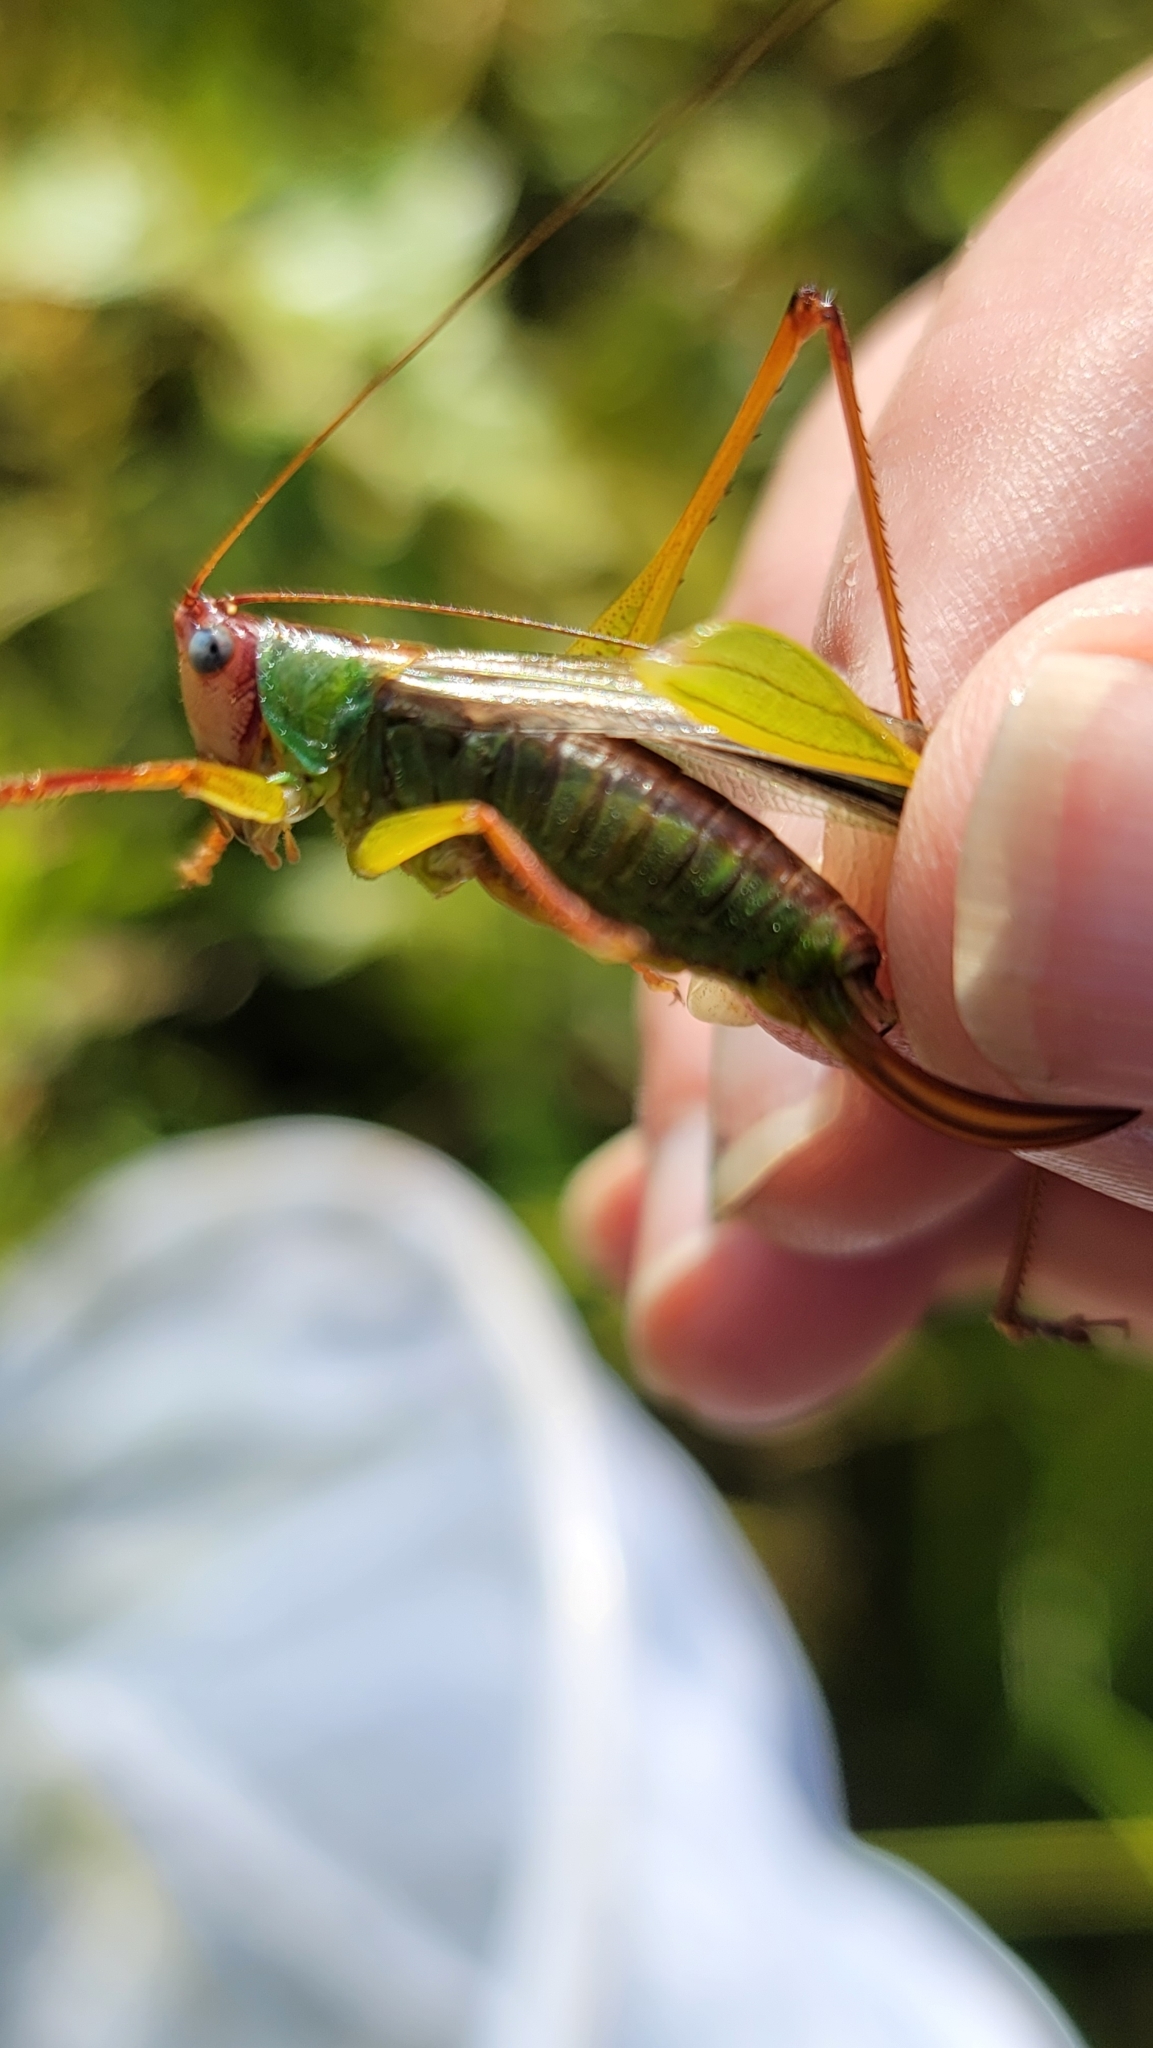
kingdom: Animalia
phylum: Arthropoda
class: Insecta
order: Orthoptera
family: Tettigoniidae
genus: Orchelimum
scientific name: Orchelimum pulchellum
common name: Handsome meadow katydid
